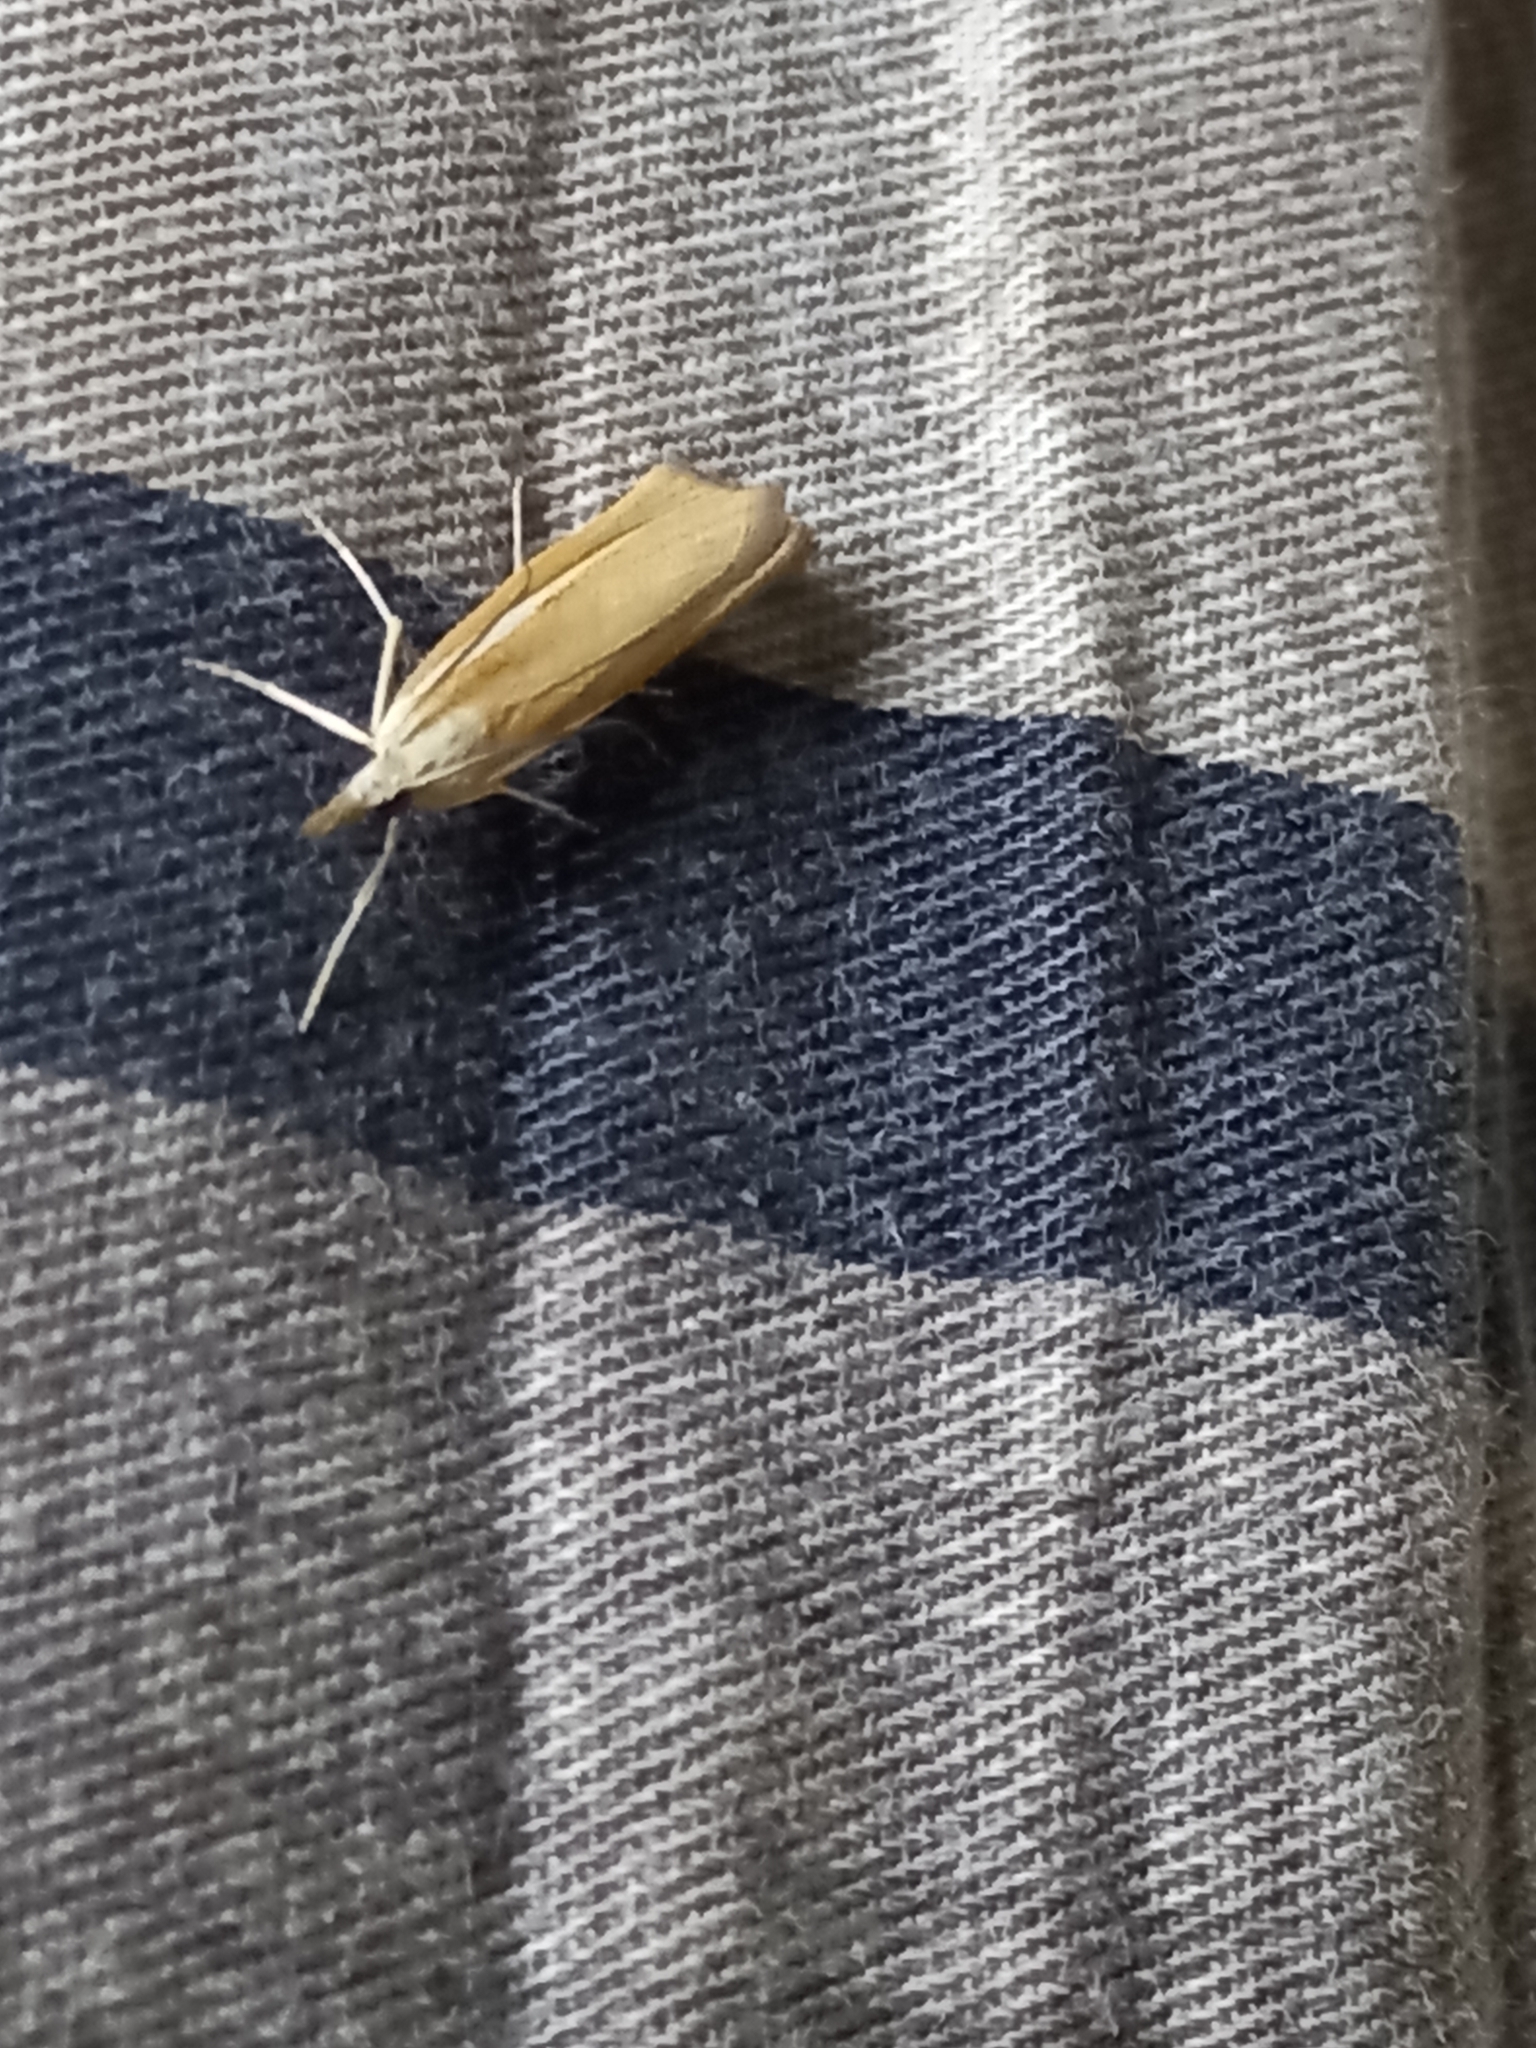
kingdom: Animalia
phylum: Arthropoda
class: Insecta
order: Lepidoptera
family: Crambidae
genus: Agriphila
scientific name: Agriphila tristellus
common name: Common grass-veneer
